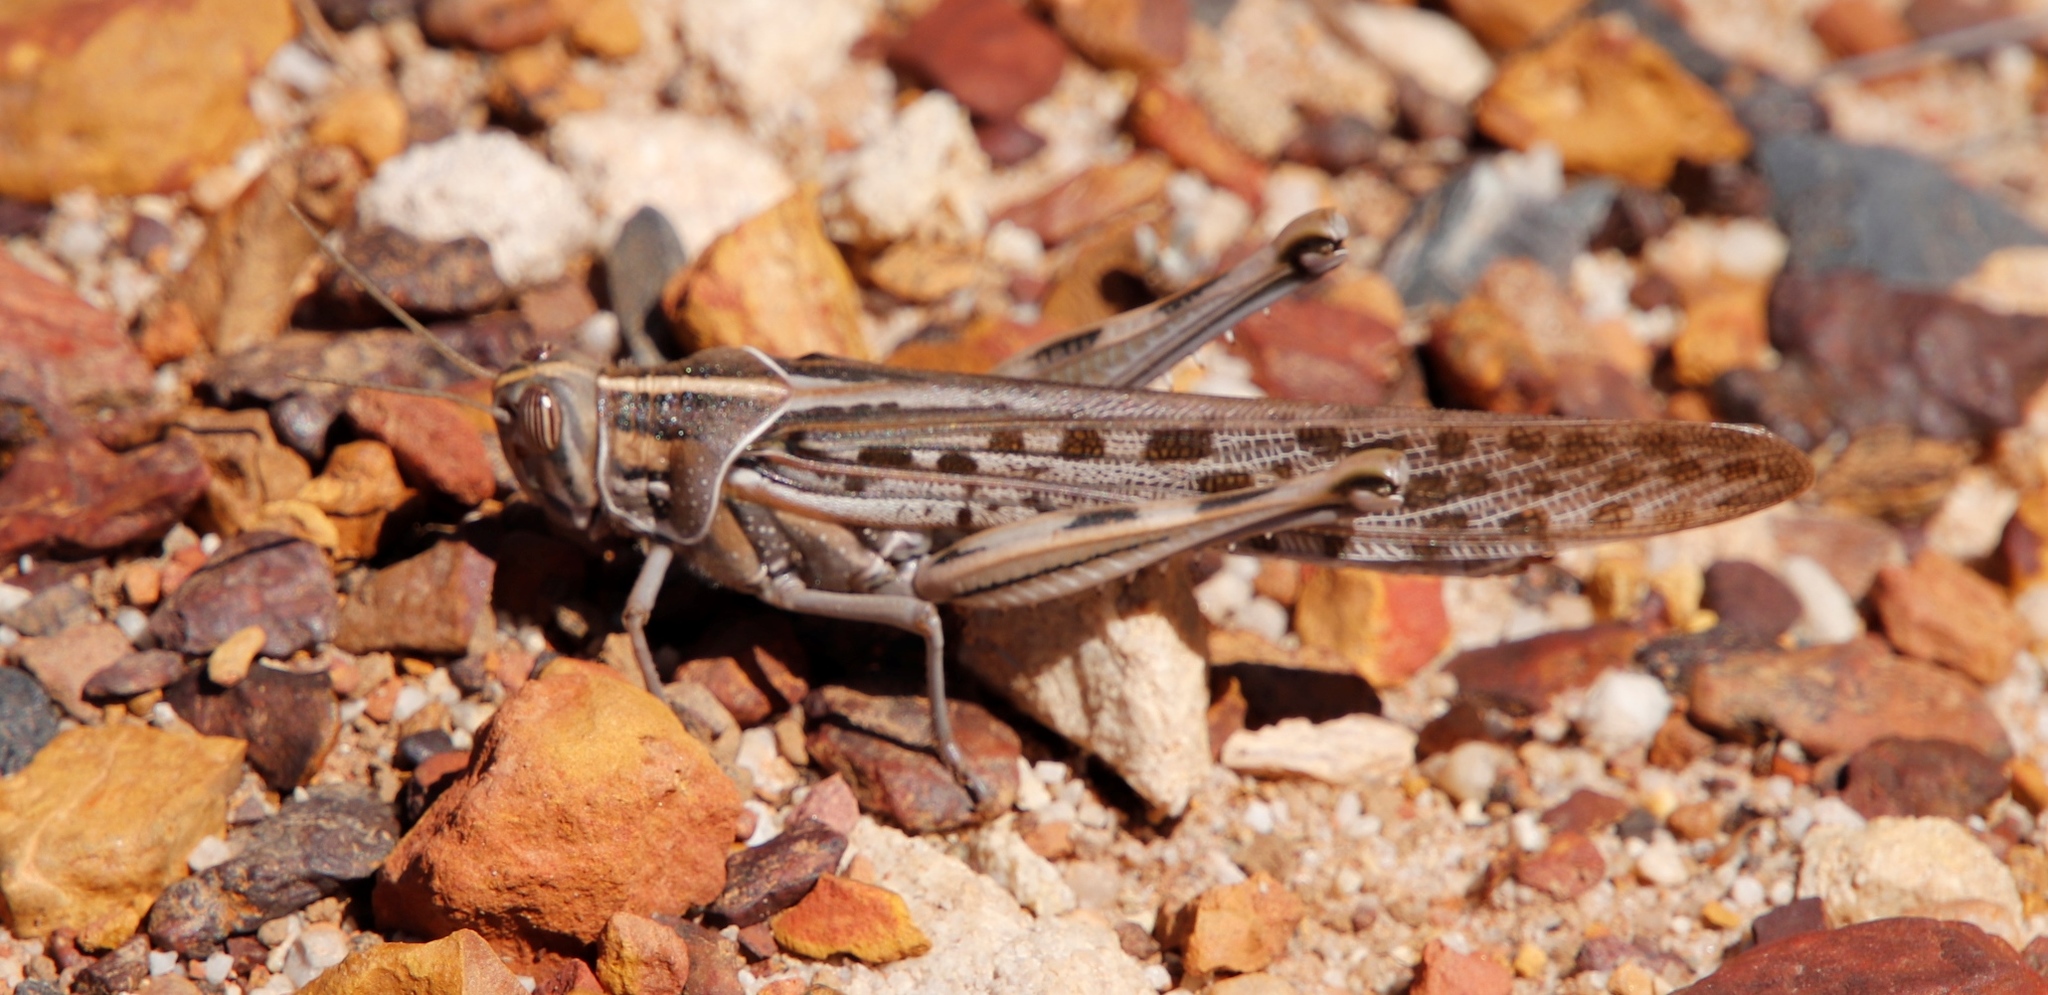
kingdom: Animalia
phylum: Arthropoda
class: Insecta
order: Orthoptera
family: Acrididae
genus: Schistocerca
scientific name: Schistocerca gregaria
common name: Desert locust
